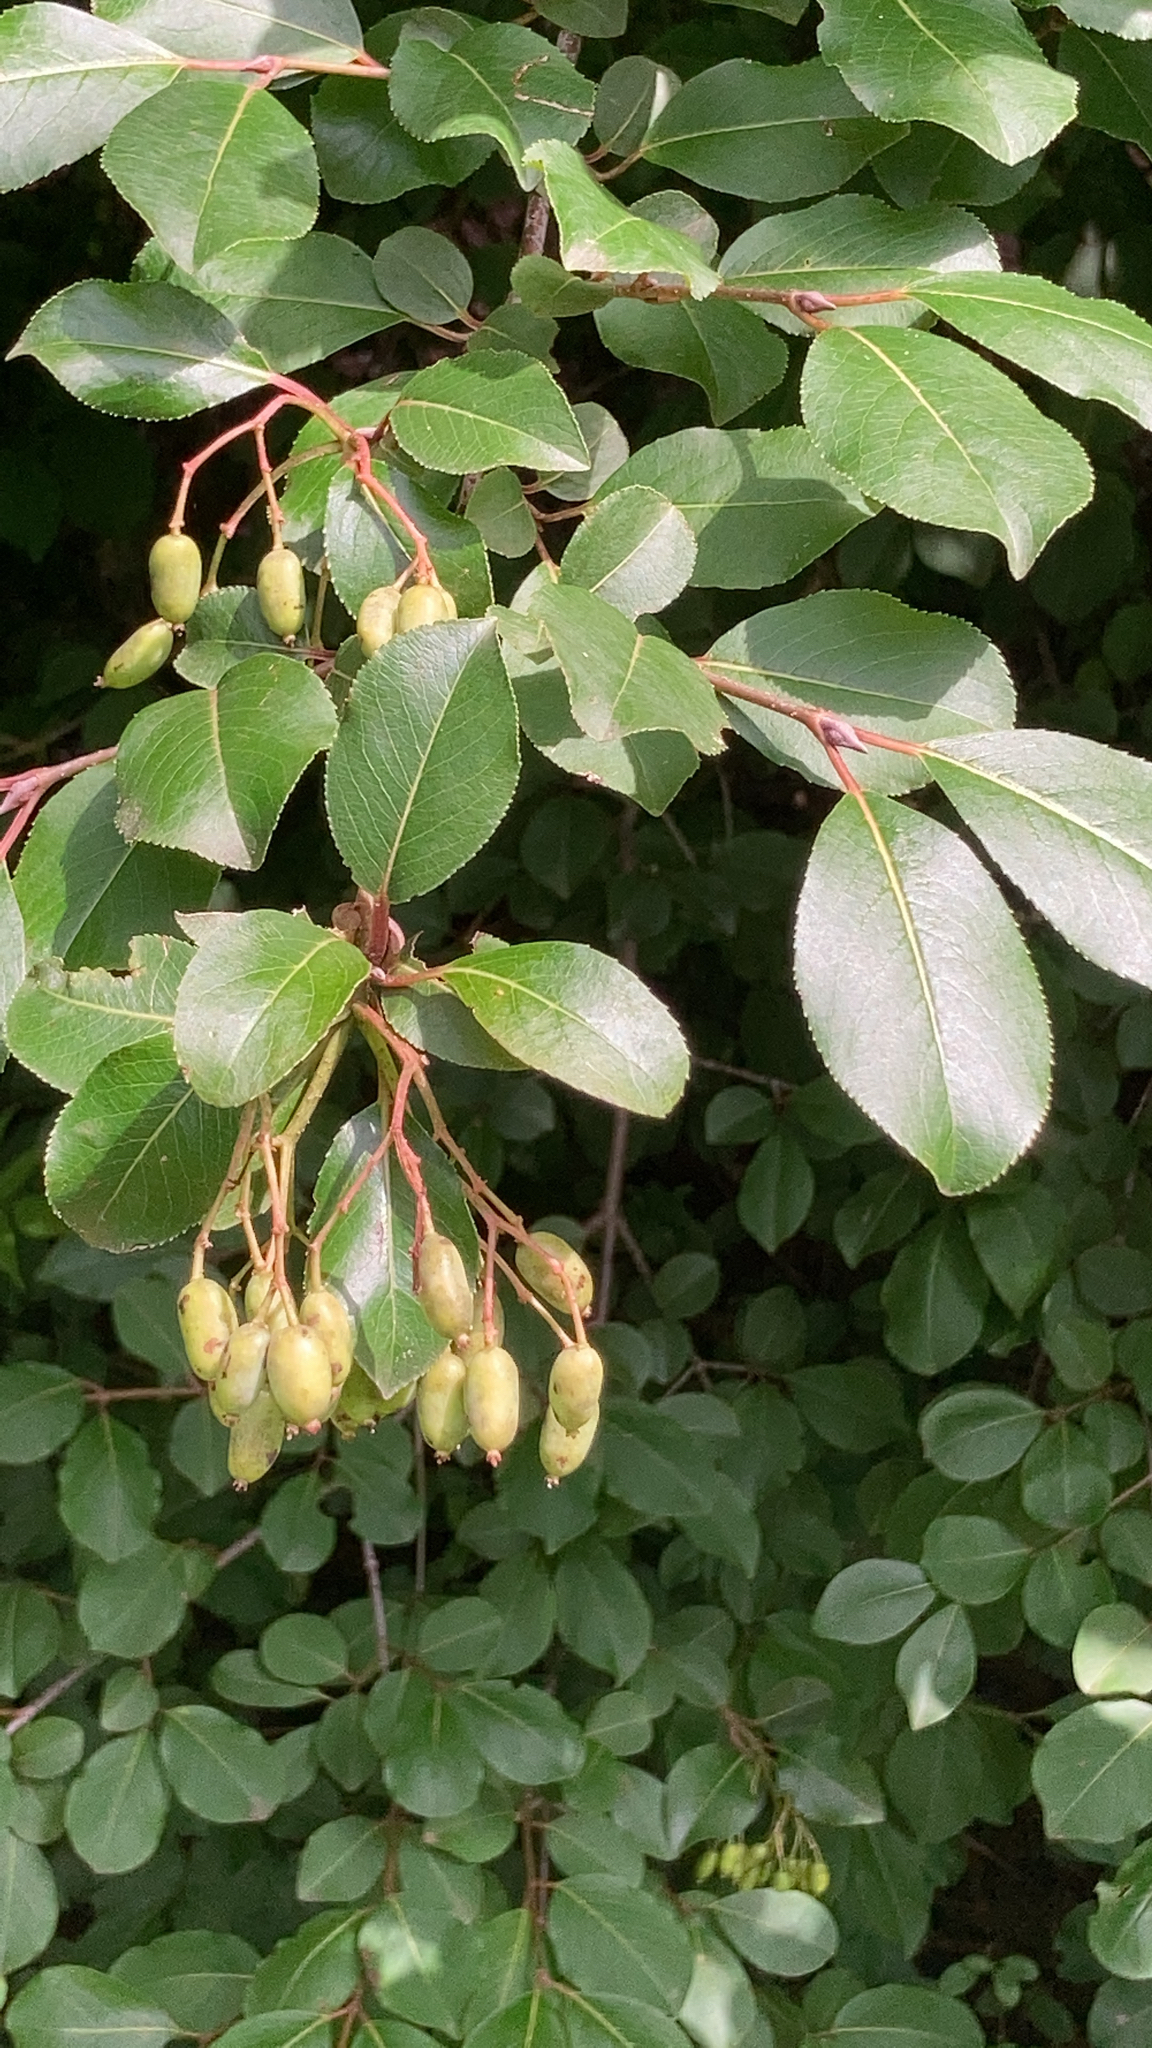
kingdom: Plantae
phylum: Tracheophyta
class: Magnoliopsida
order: Dipsacales
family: Viburnaceae
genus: Viburnum
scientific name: Viburnum prunifolium
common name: Black haw
